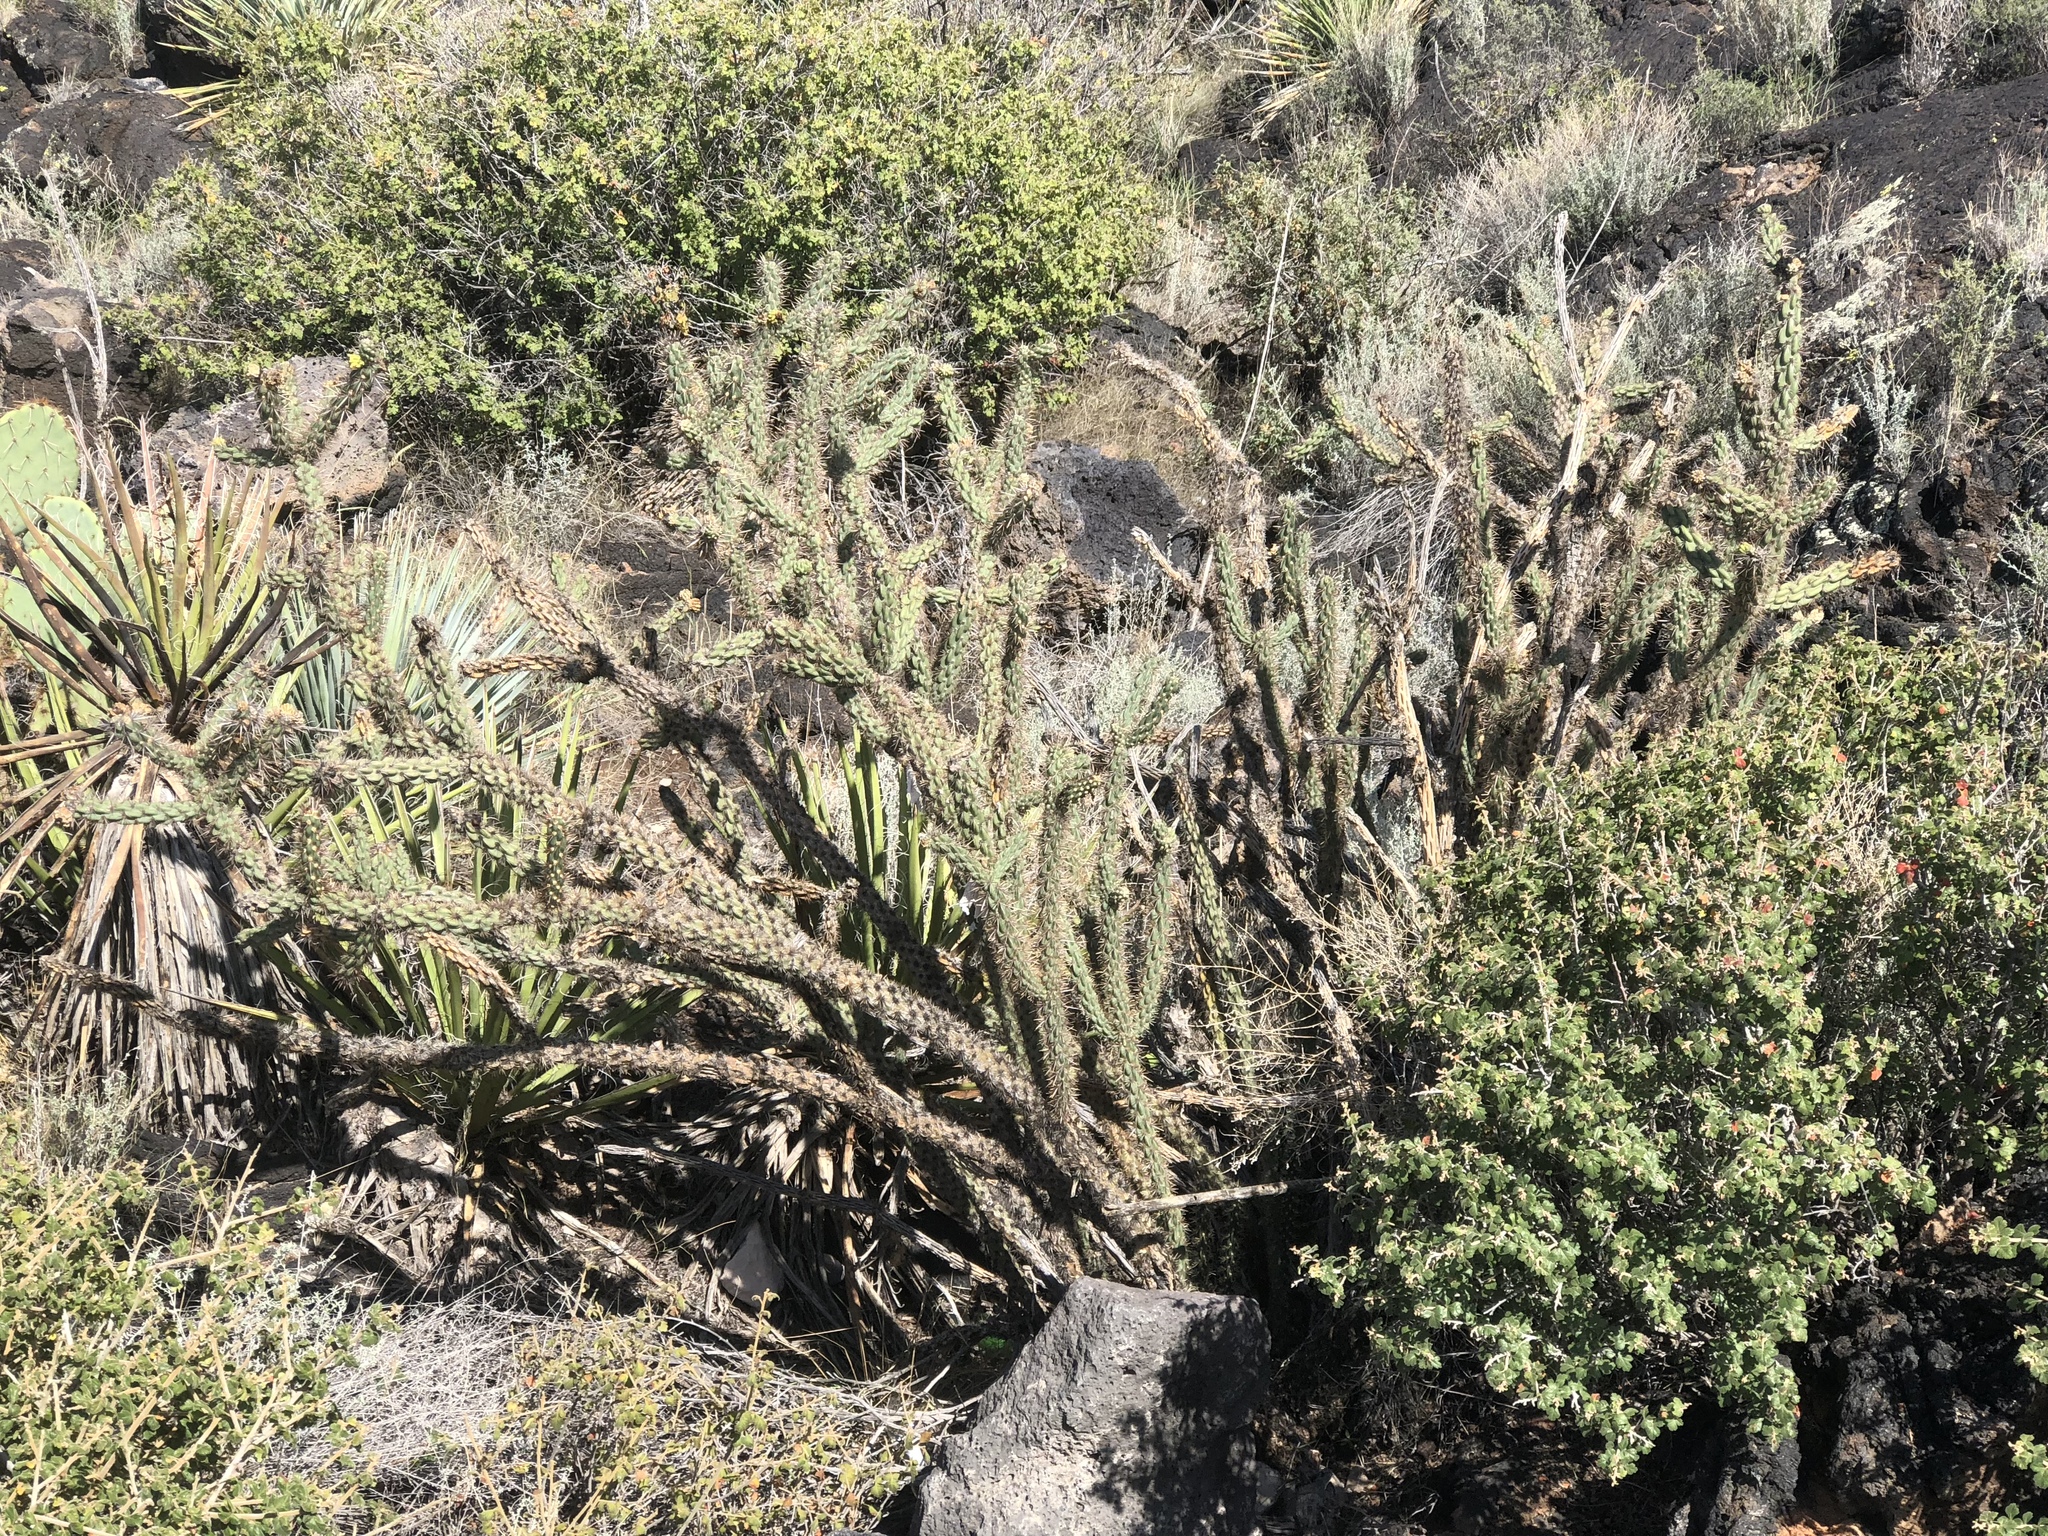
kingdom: Plantae
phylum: Tracheophyta
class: Magnoliopsida
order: Caryophyllales
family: Cactaceae
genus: Cylindropuntia
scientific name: Cylindropuntia imbricata
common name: Candelabrum cactus
